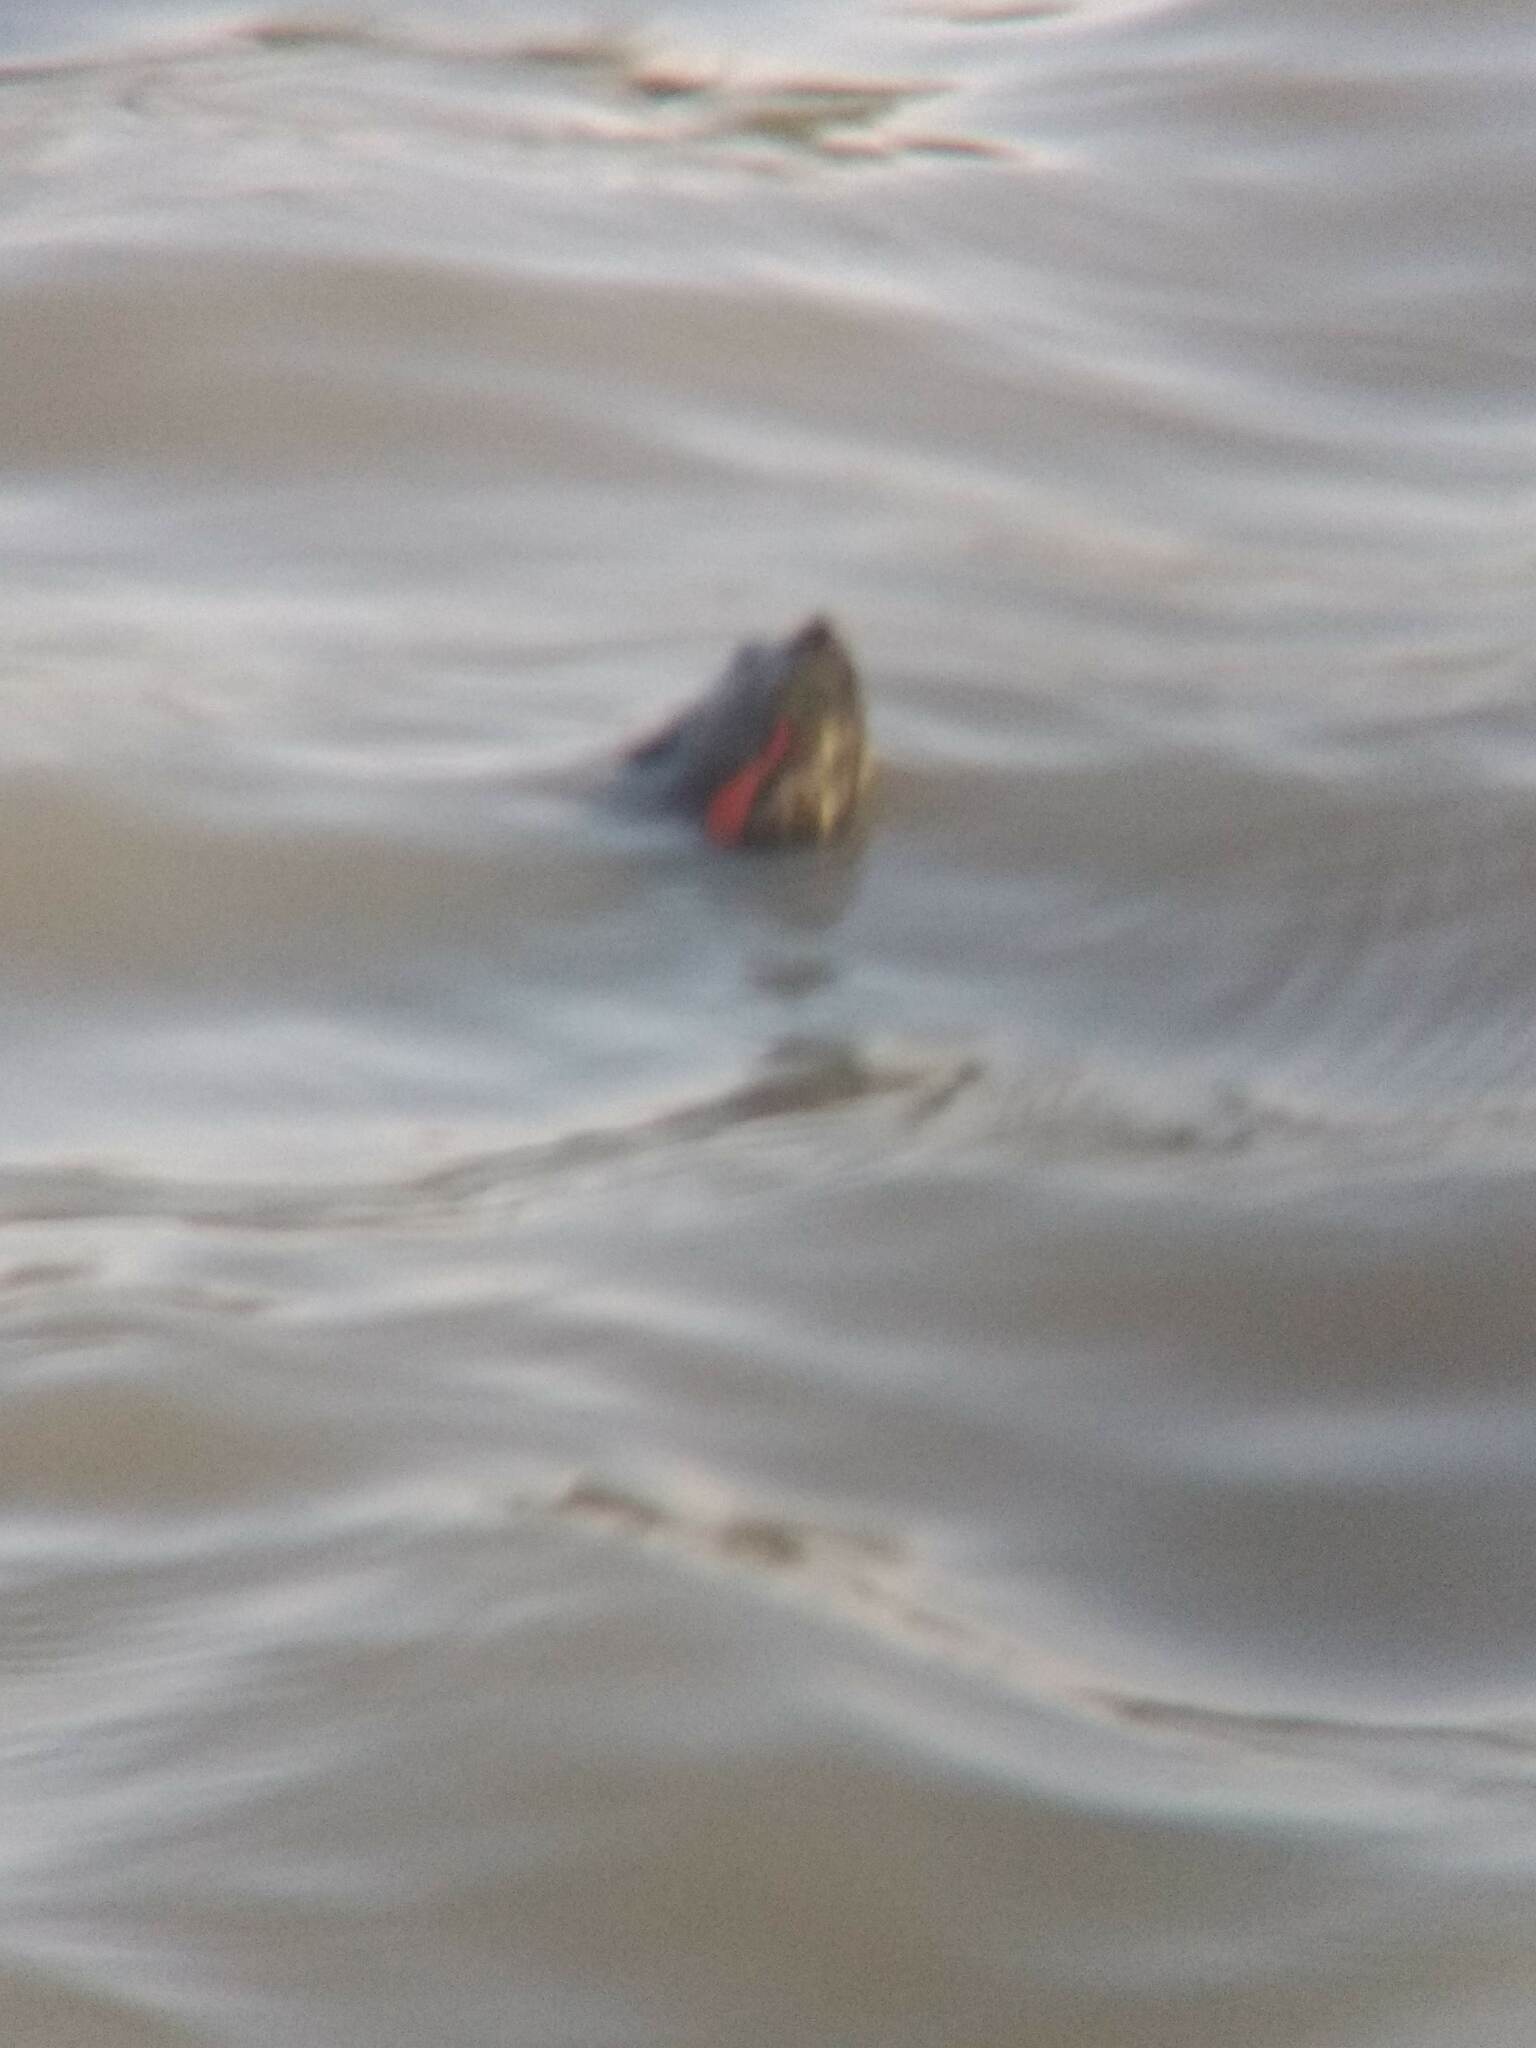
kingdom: Animalia
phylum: Chordata
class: Testudines
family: Emydidae
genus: Trachemys
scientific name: Trachemys scripta
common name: Slider
